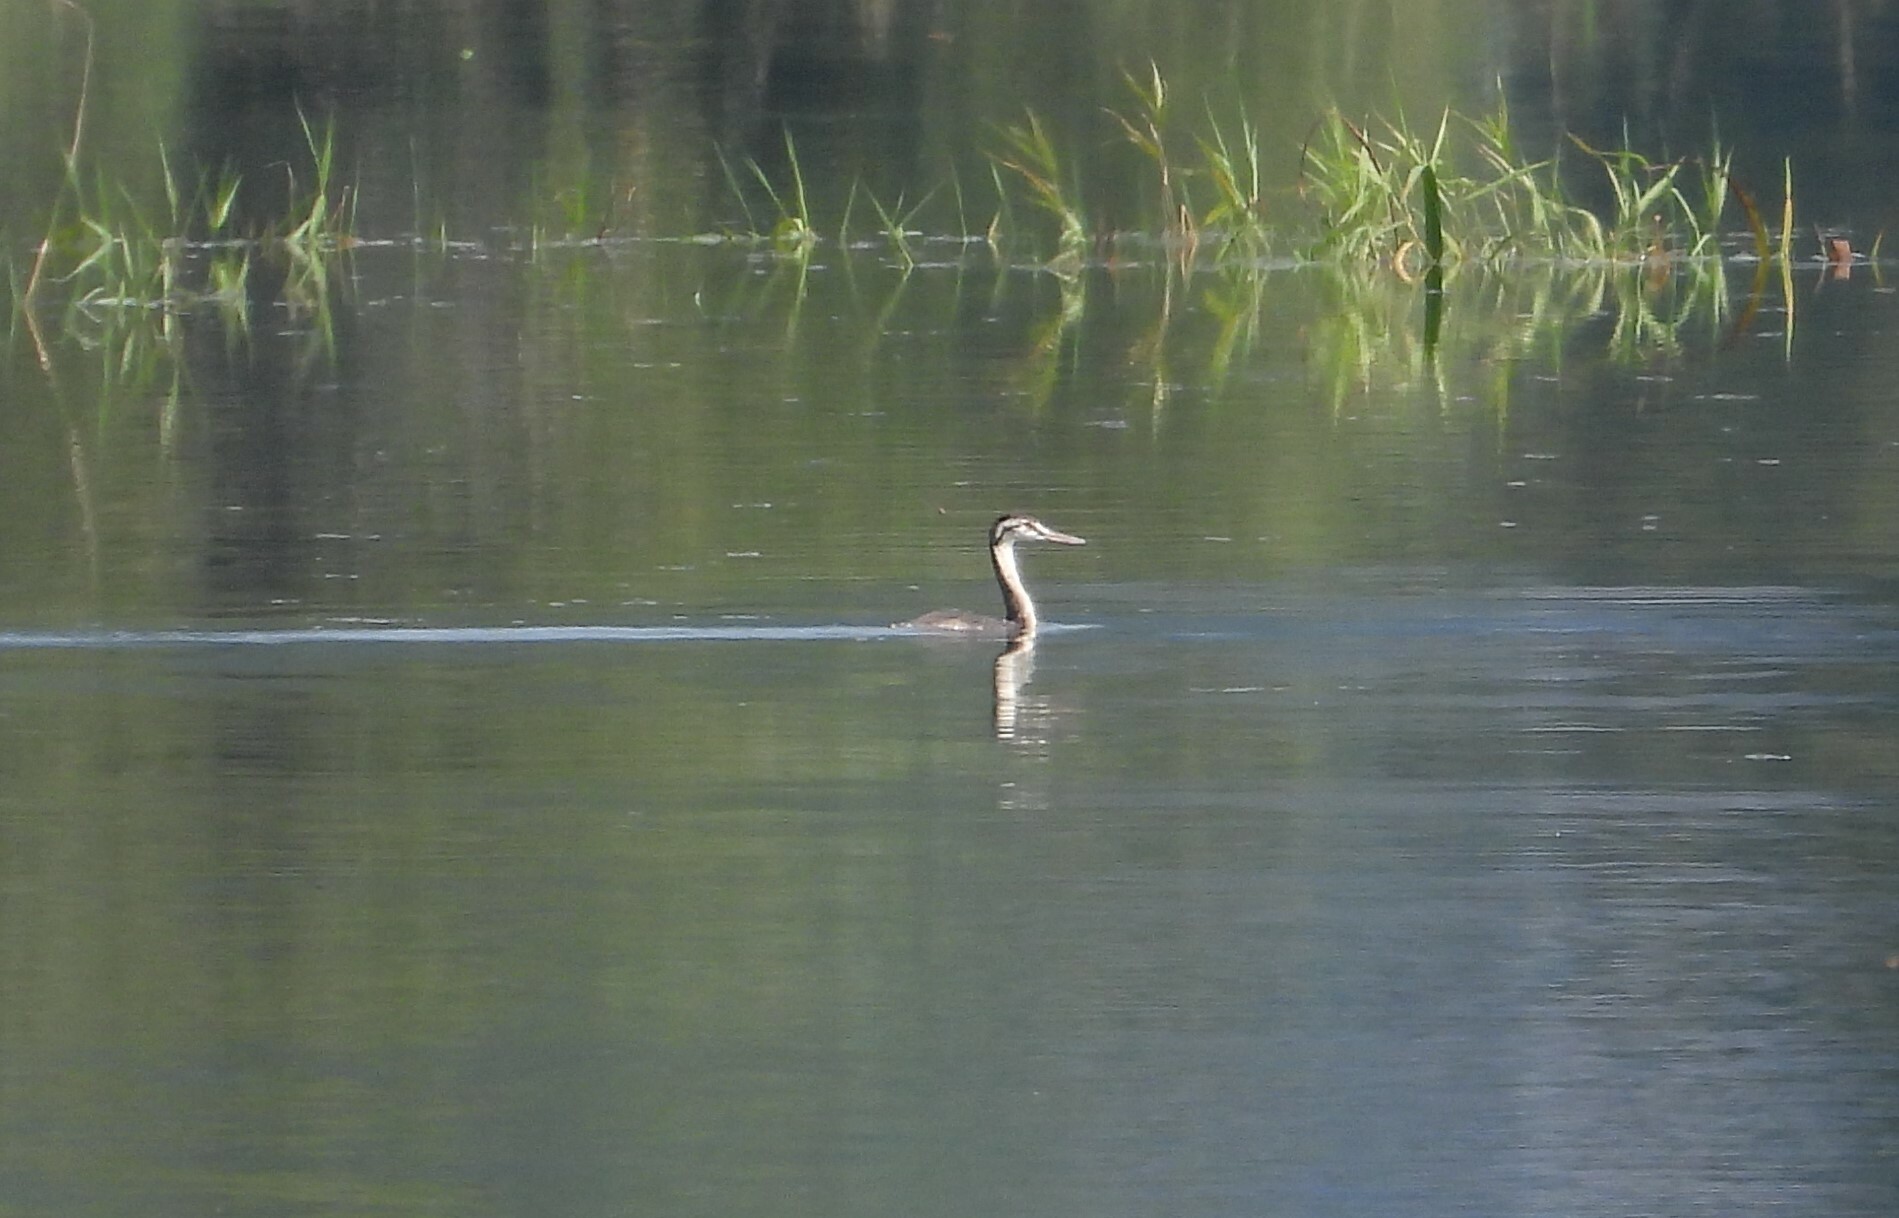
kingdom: Animalia
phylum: Chordata
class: Aves
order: Podicipediformes
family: Podicipedidae
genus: Podiceps
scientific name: Podiceps cristatus
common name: Great crested grebe
